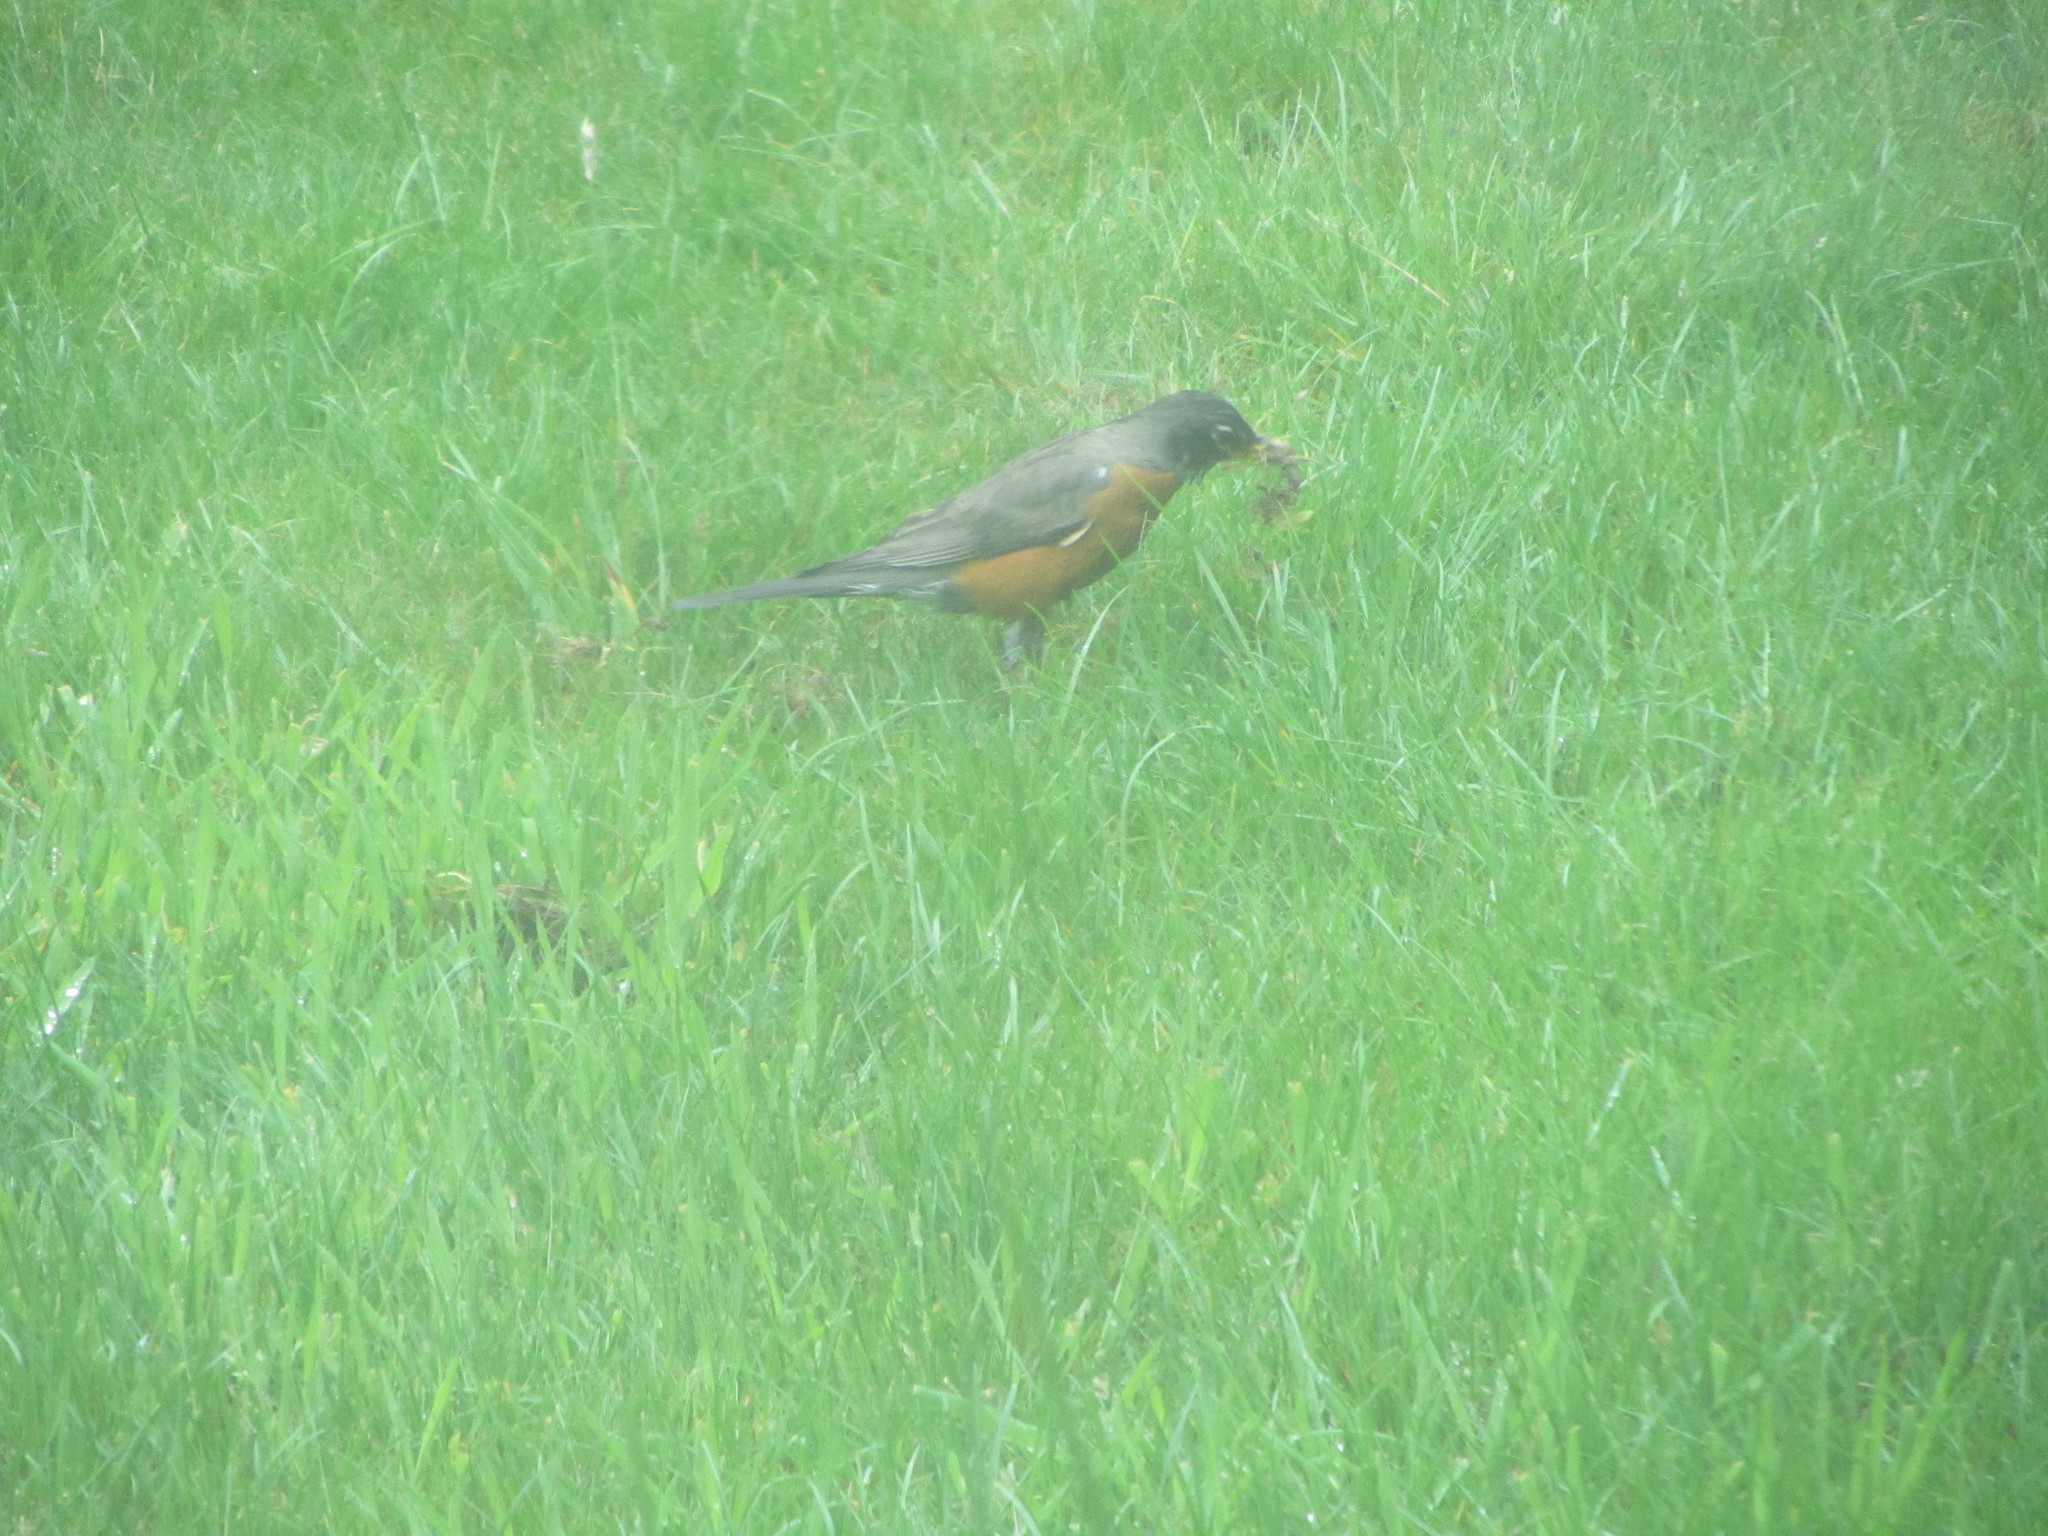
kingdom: Animalia
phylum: Chordata
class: Aves
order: Passeriformes
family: Turdidae
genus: Turdus
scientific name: Turdus migratorius
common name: American robin
